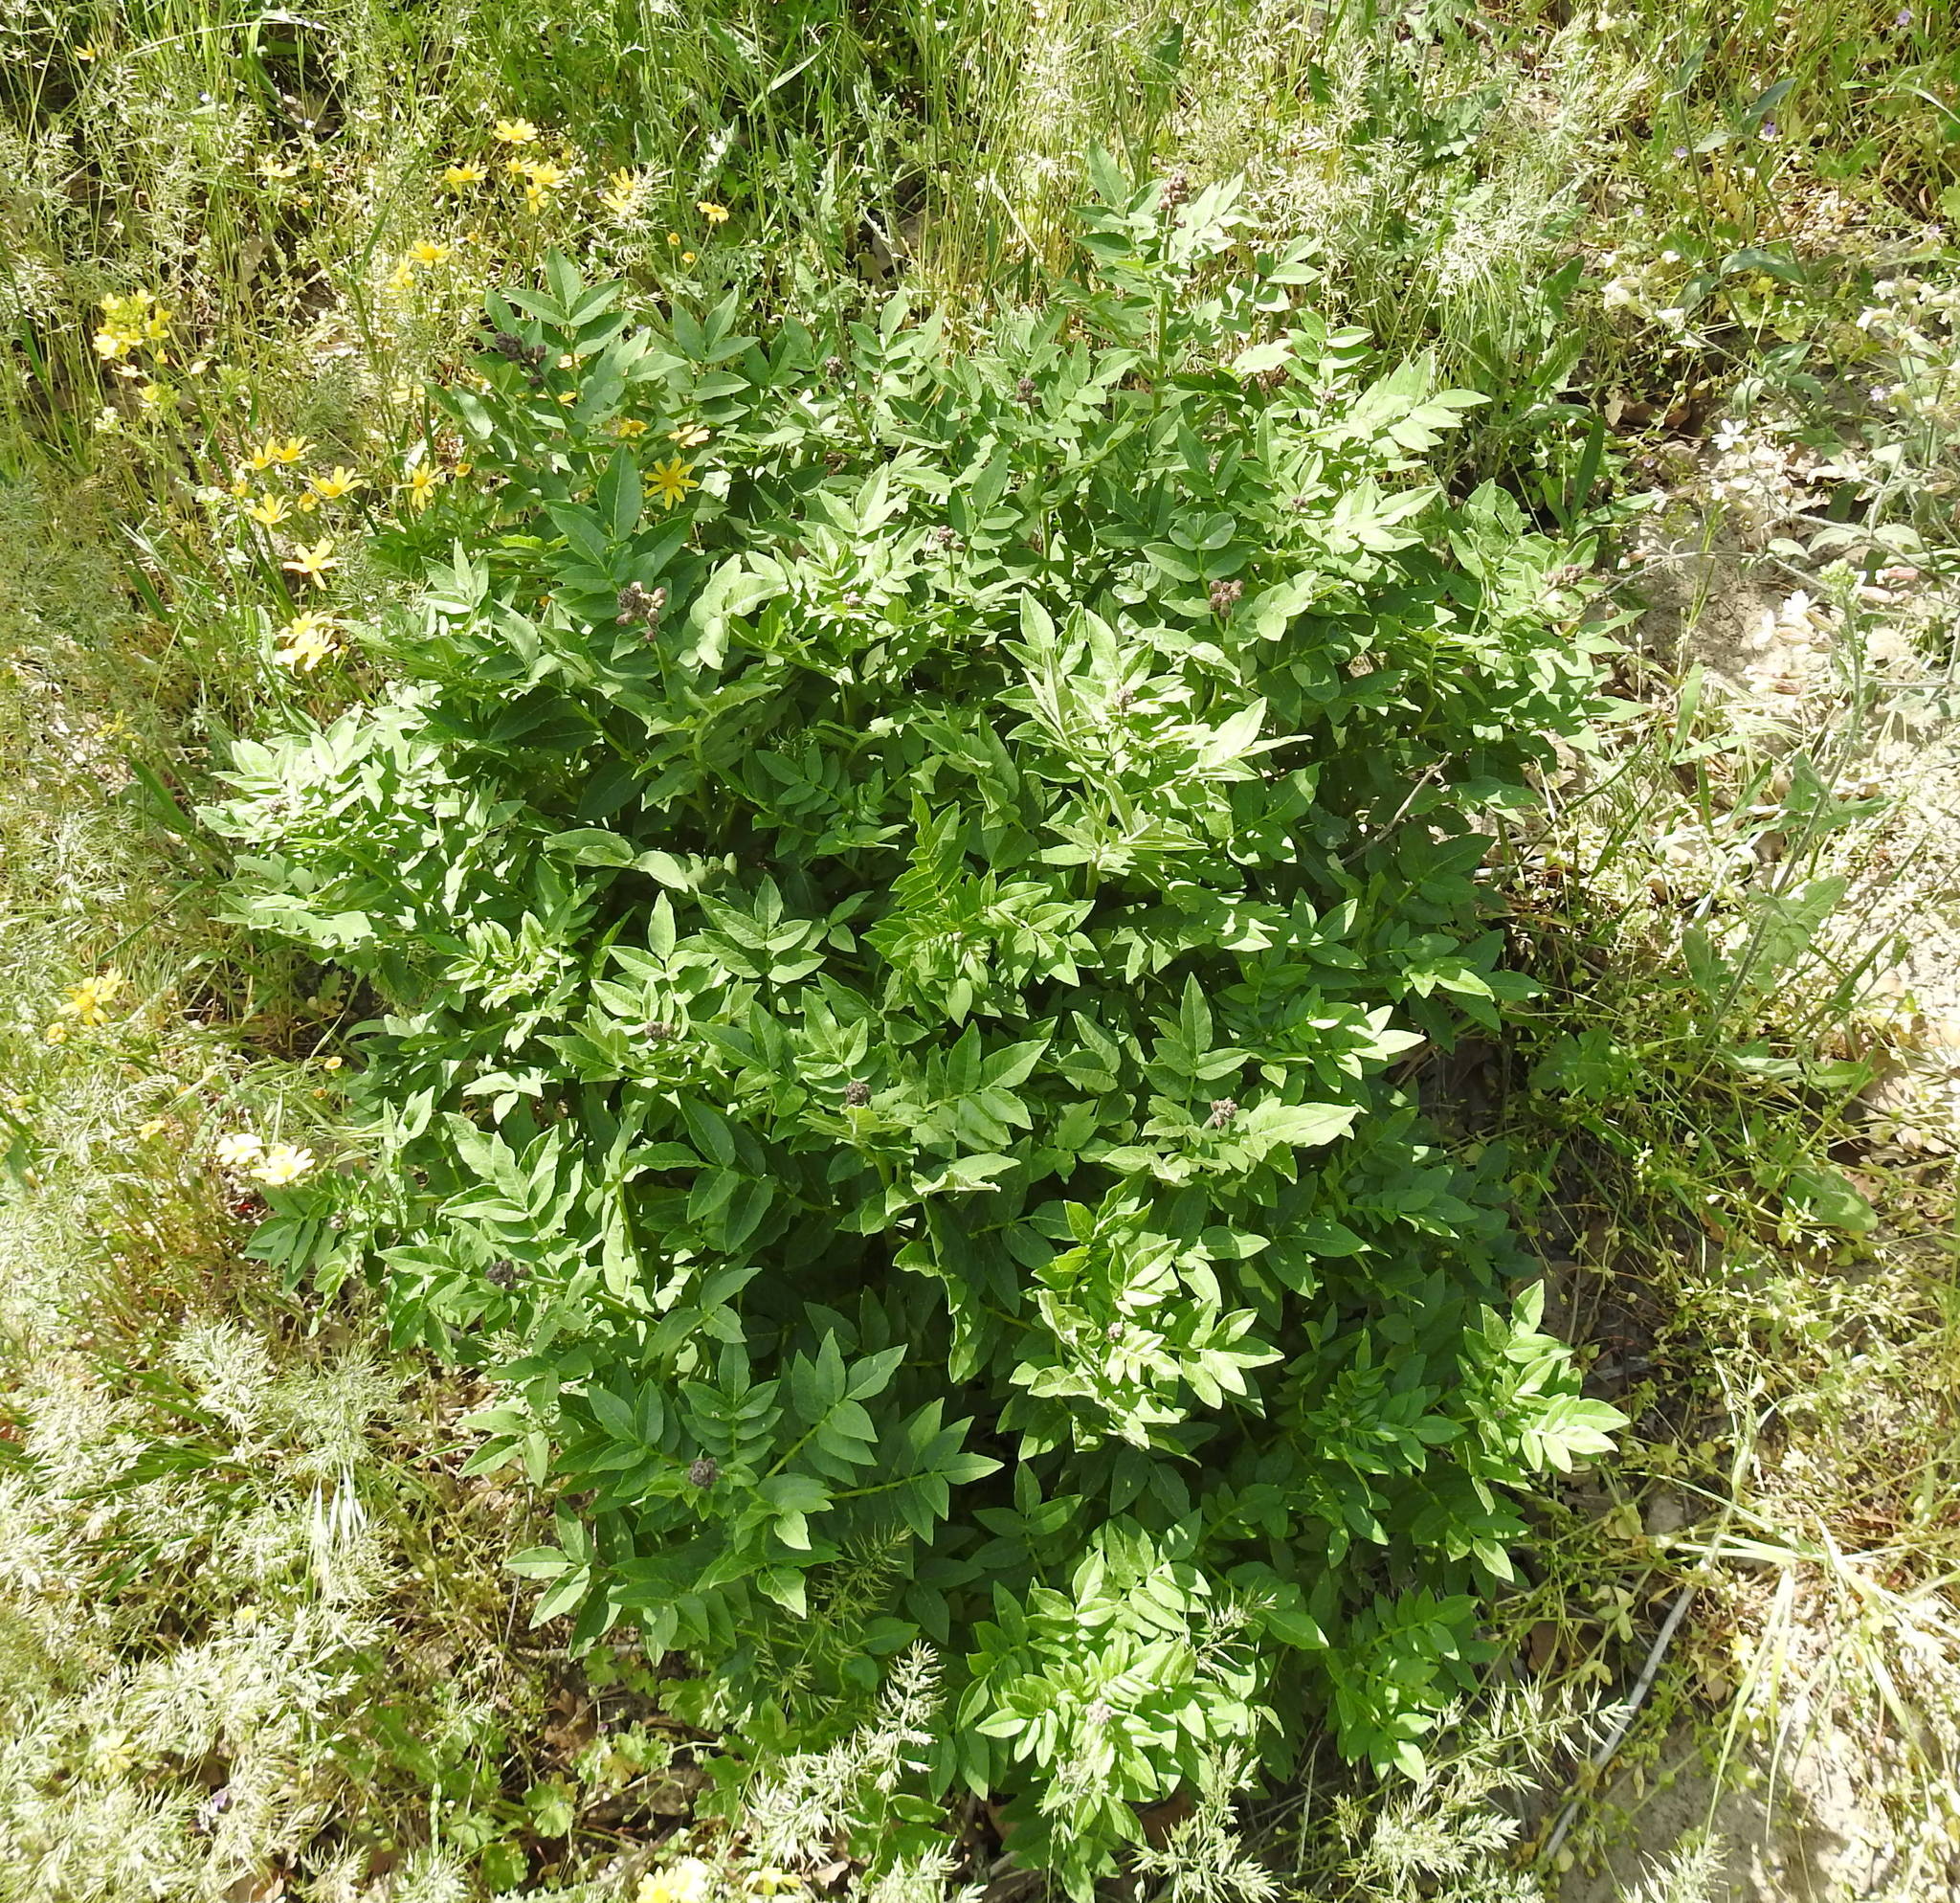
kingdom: Plantae
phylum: Tracheophyta
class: Magnoliopsida
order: Sapindales
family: Rutaceae
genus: Dictamnus
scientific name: Dictamnus albus
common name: Gasplant
